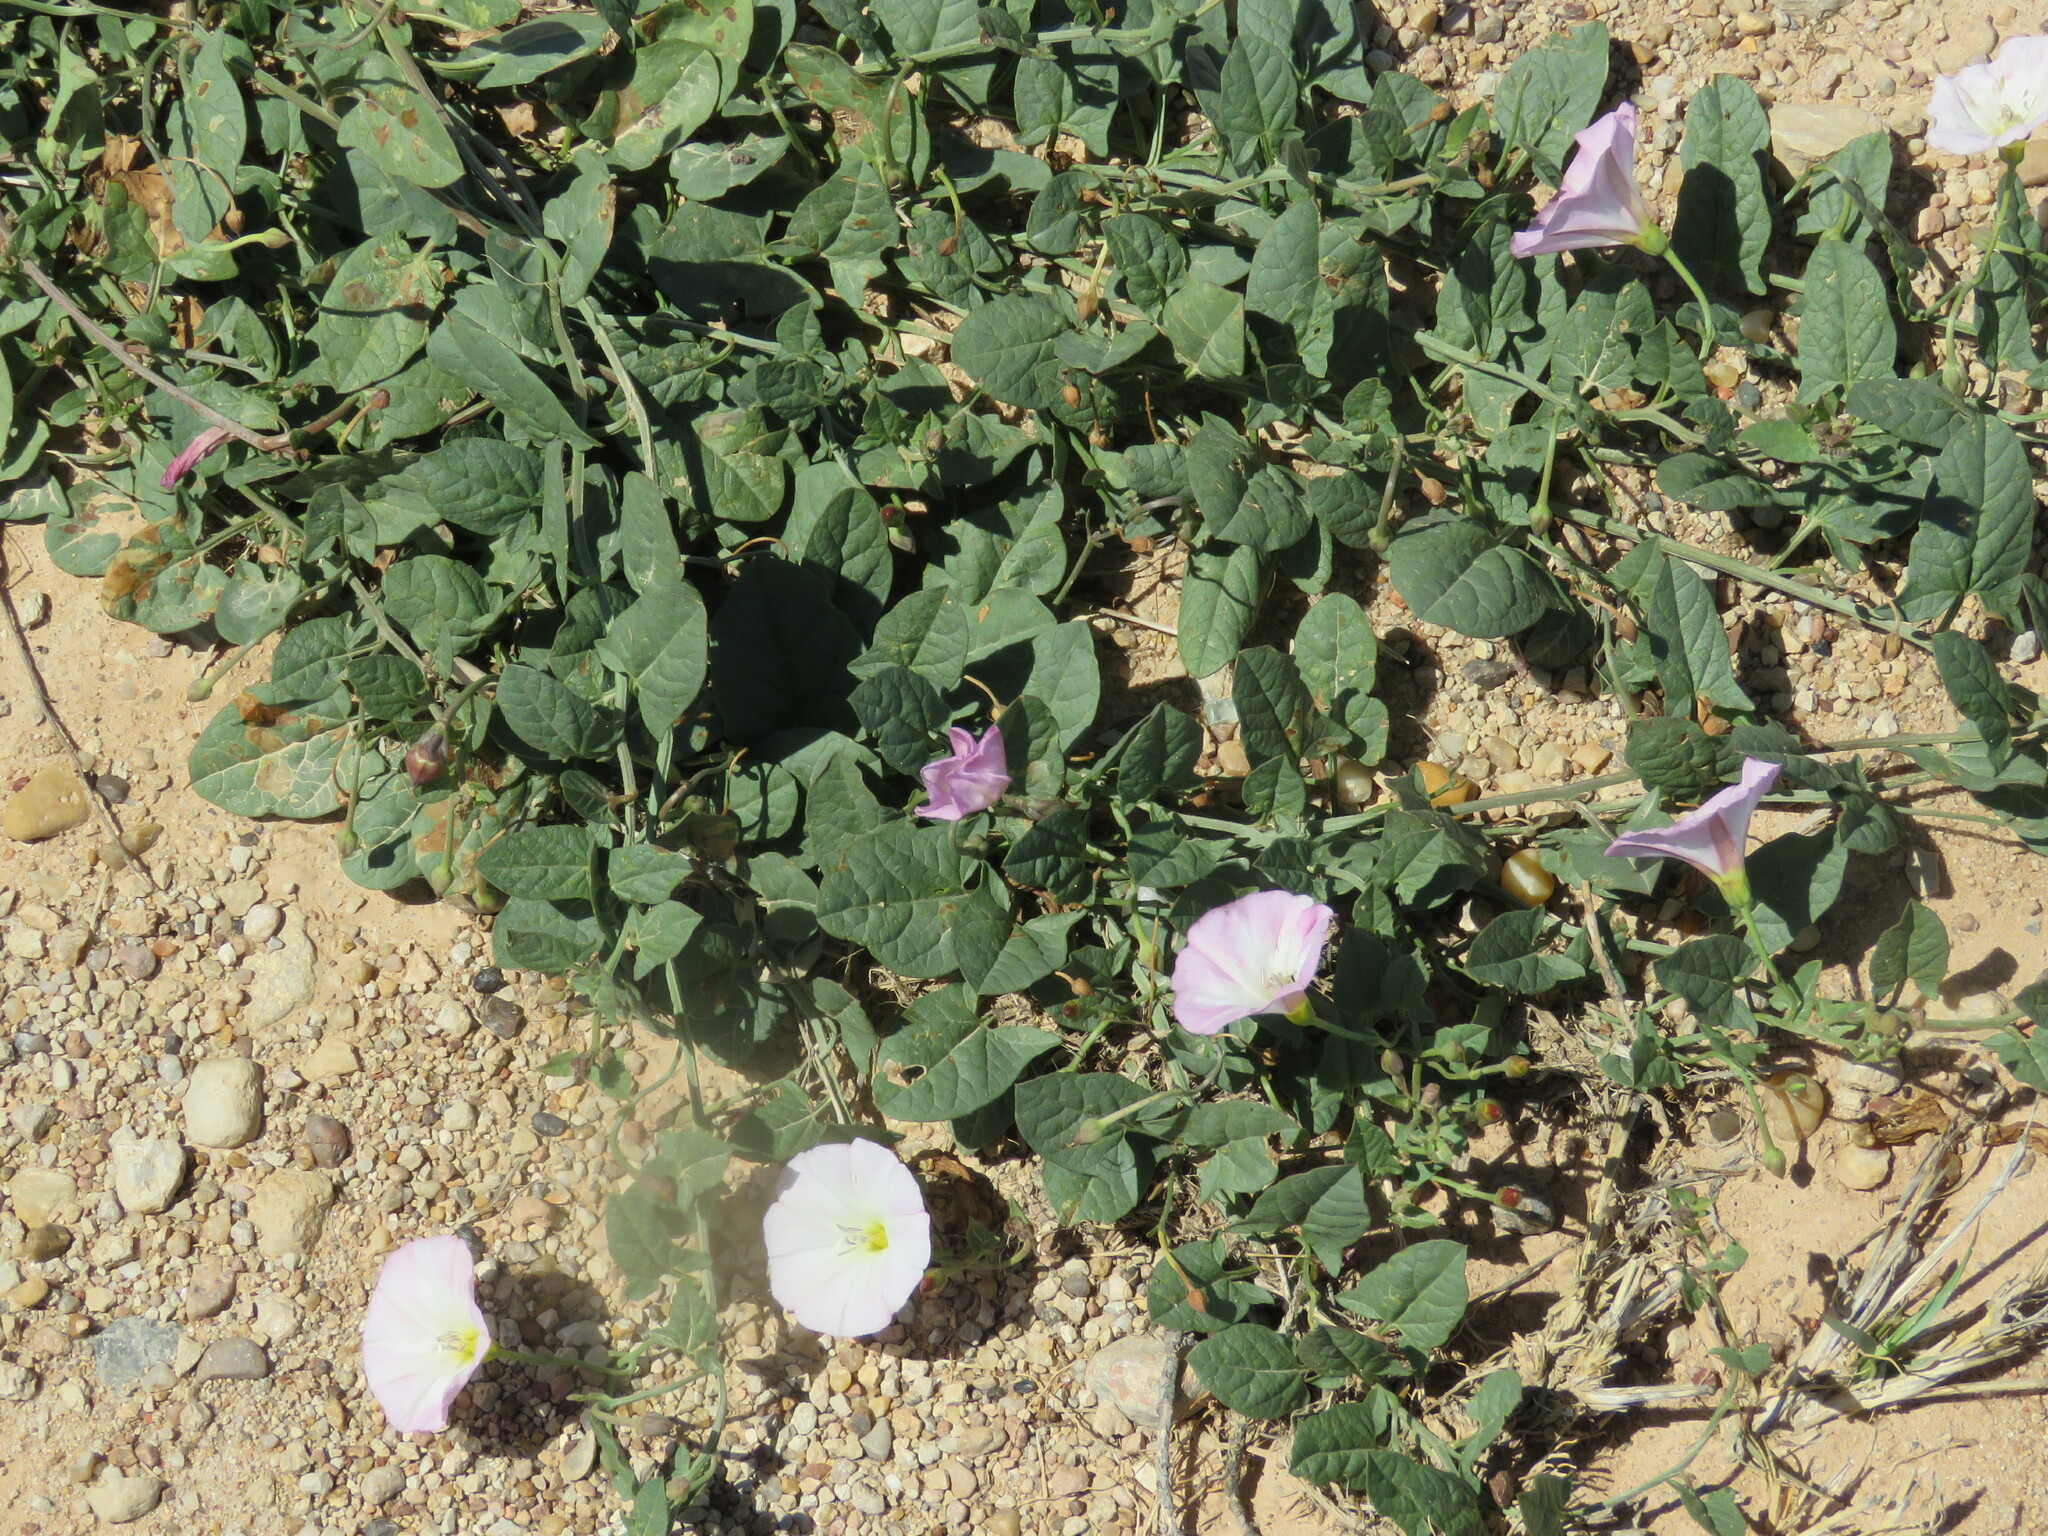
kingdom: Plantae
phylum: Tracheophyta
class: Magnoliopsida
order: Solanales
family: Convolvulaceae
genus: Convolvulus
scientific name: Convolvulus arvensis
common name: Field bindweed
